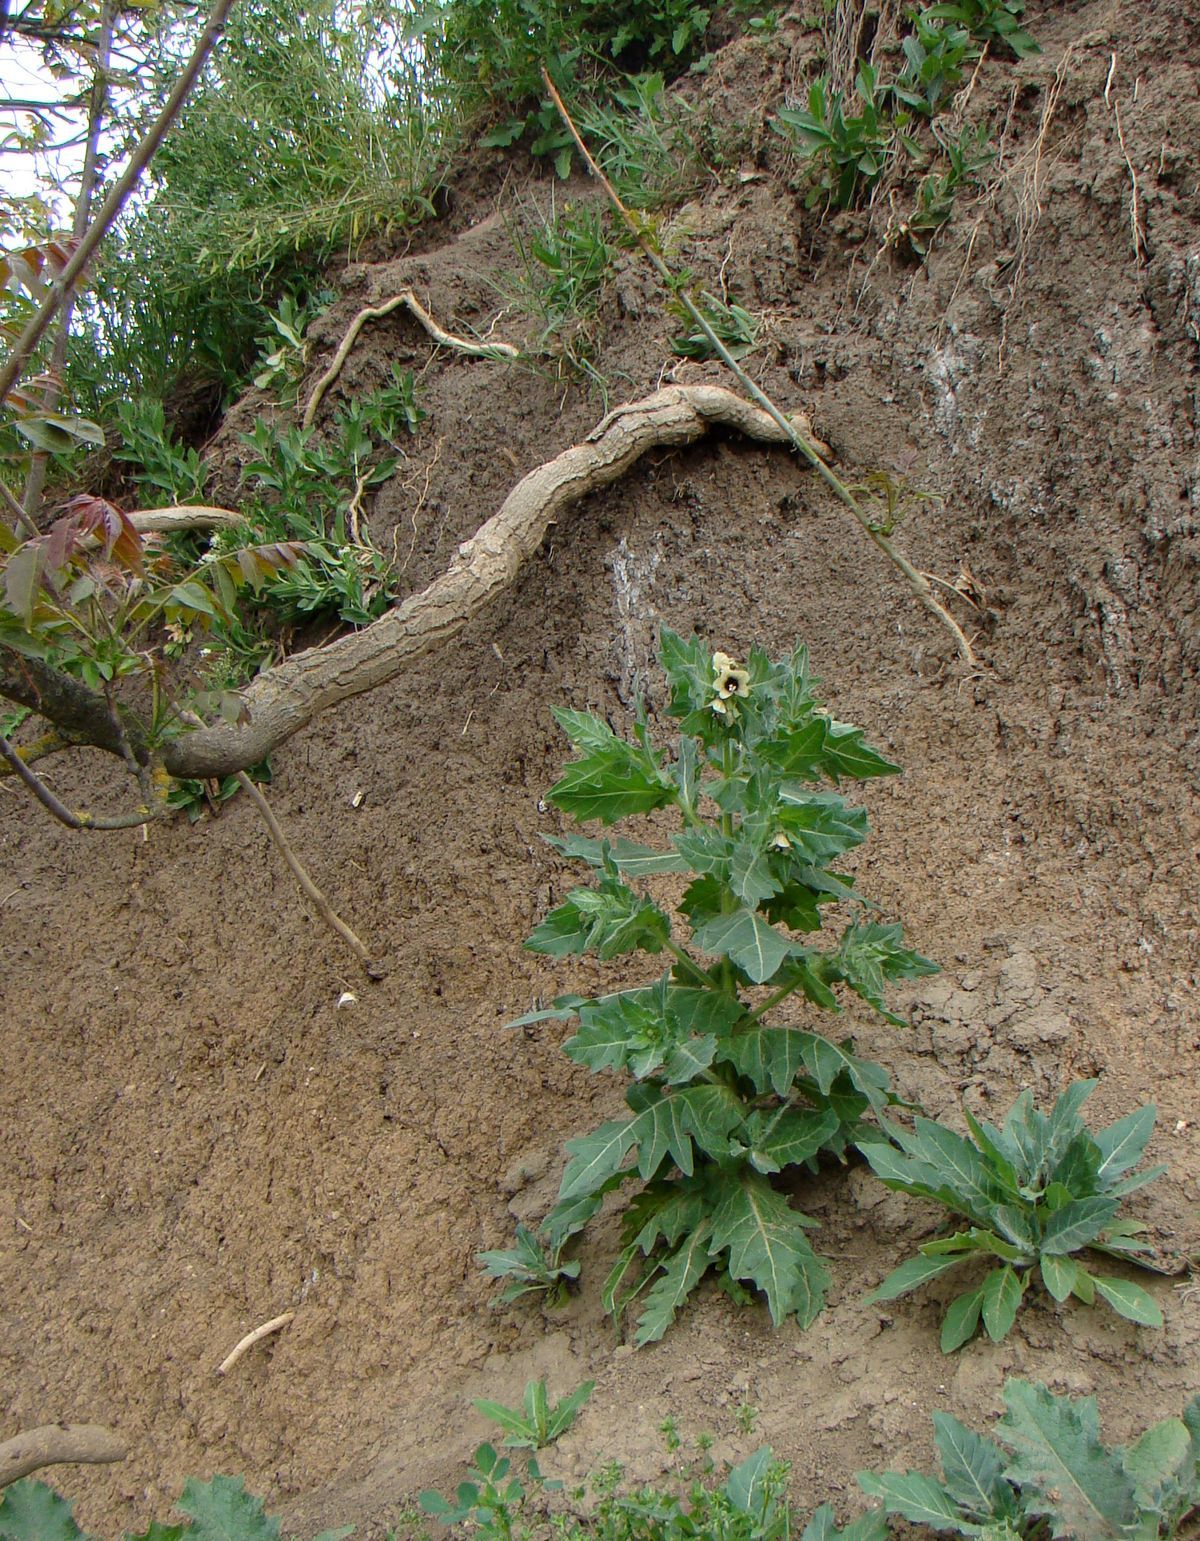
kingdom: Plantae
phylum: Tracheophyta
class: Magnoliopsida
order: Solanales
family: Solanaceae
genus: Hyoscyamus
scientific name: Hyoscyamus niger
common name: Henbane
